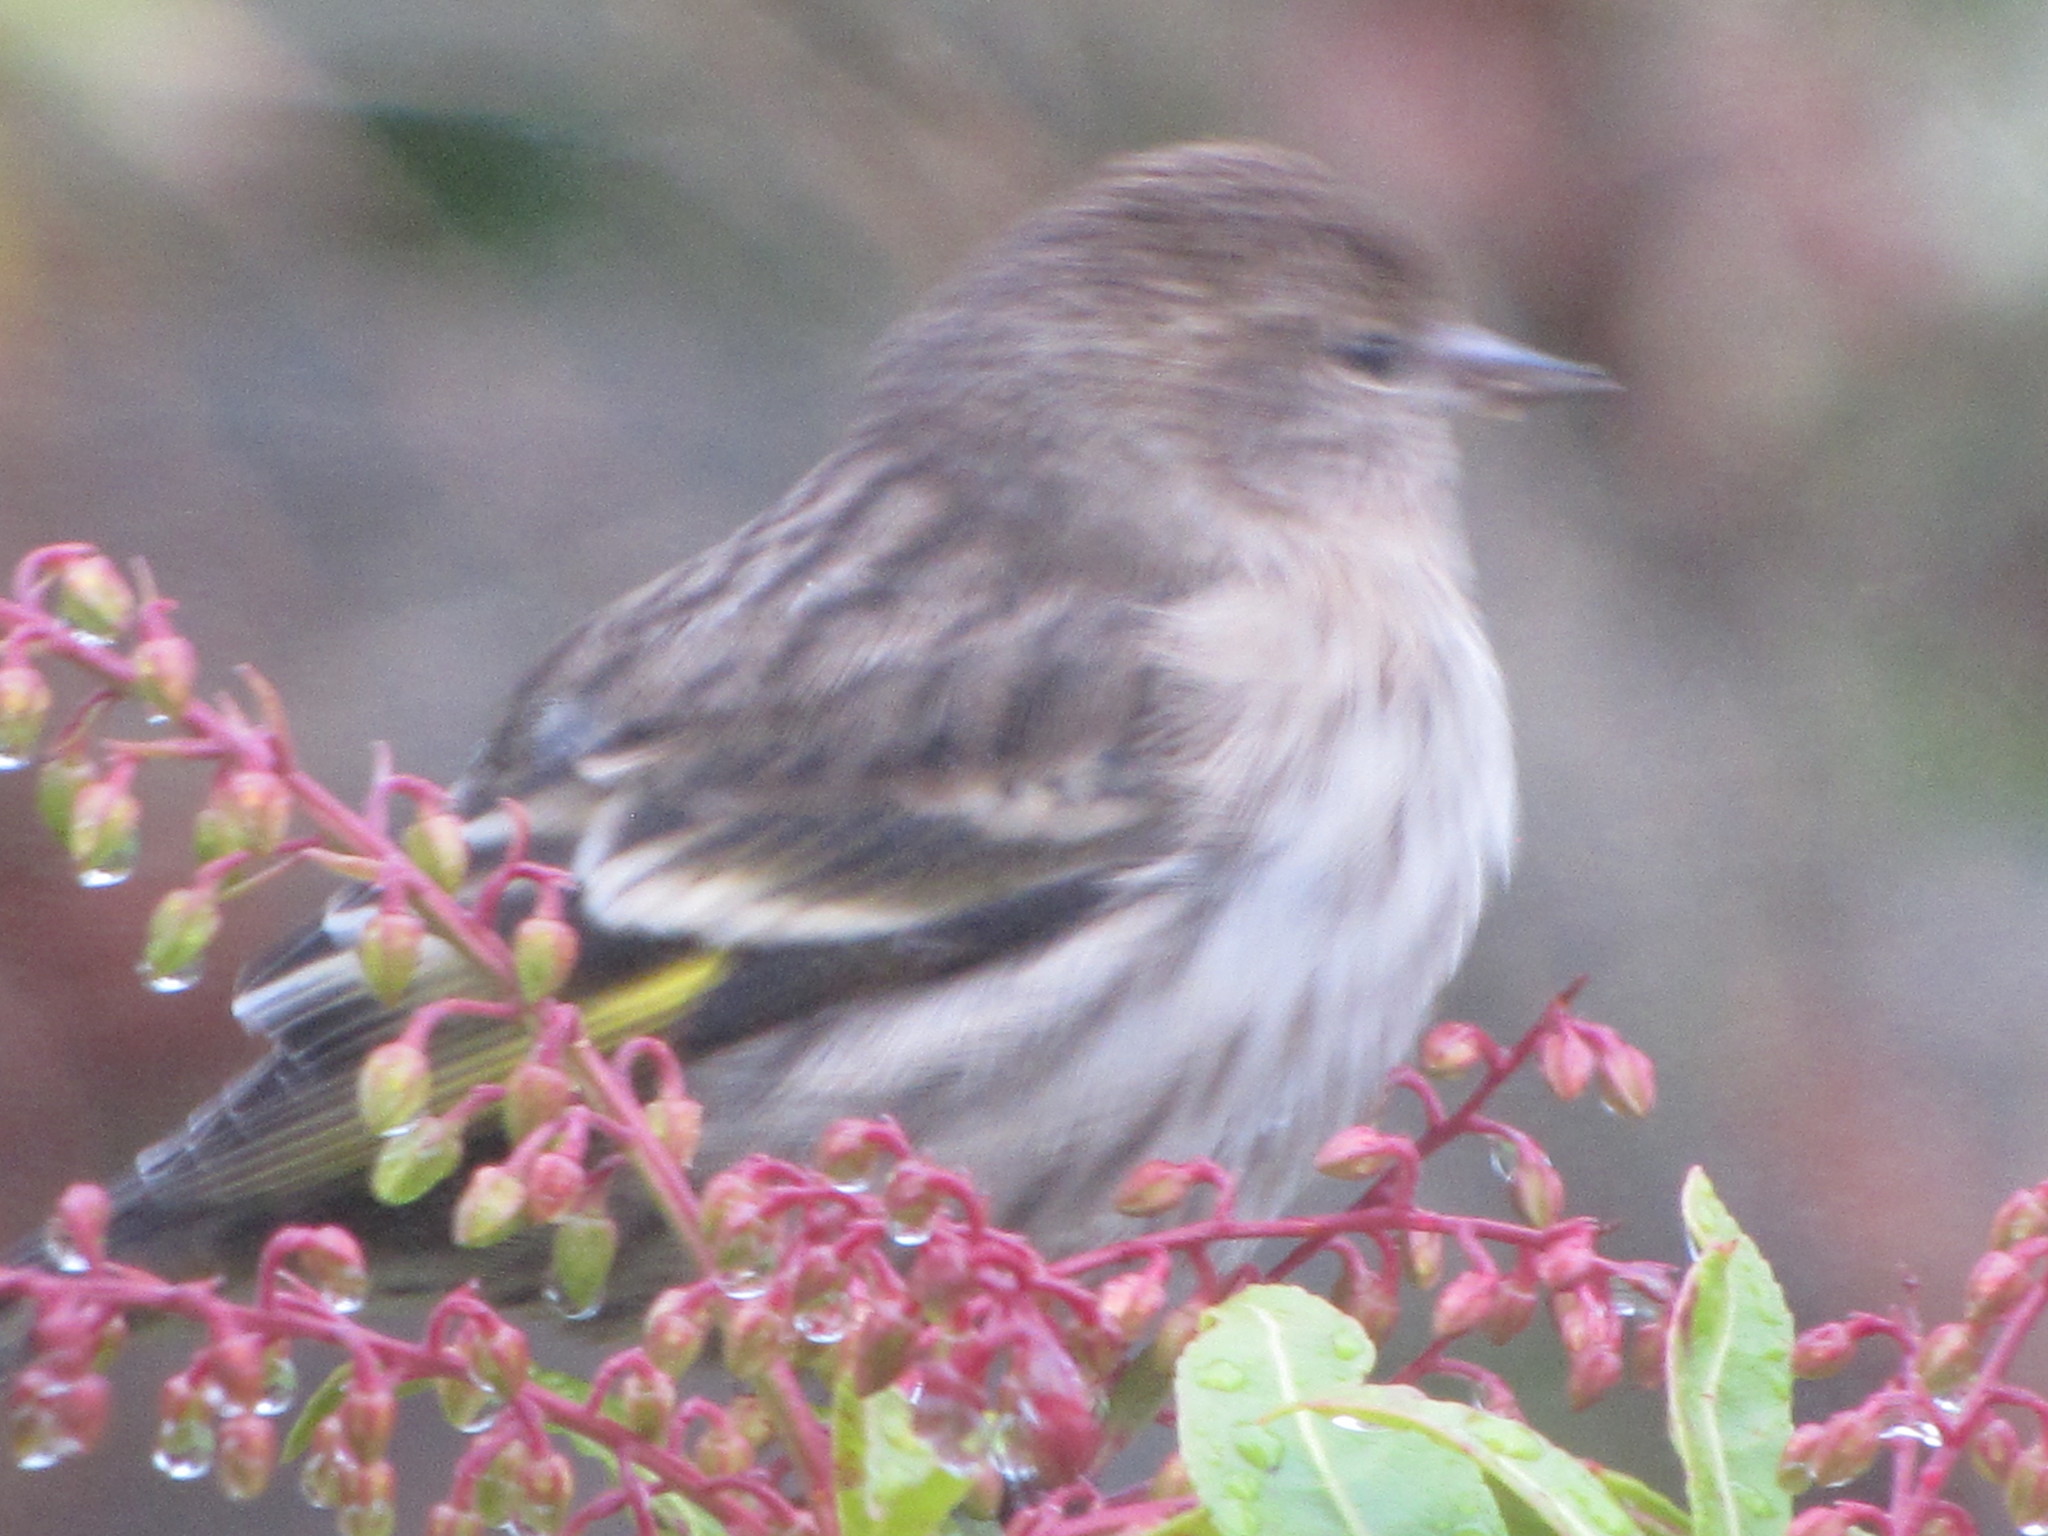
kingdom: Animalia
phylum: Chordata
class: Aves
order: Passeriformes
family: Fringillidae
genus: Spinus
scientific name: Spinus pinus
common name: Pine siskin
